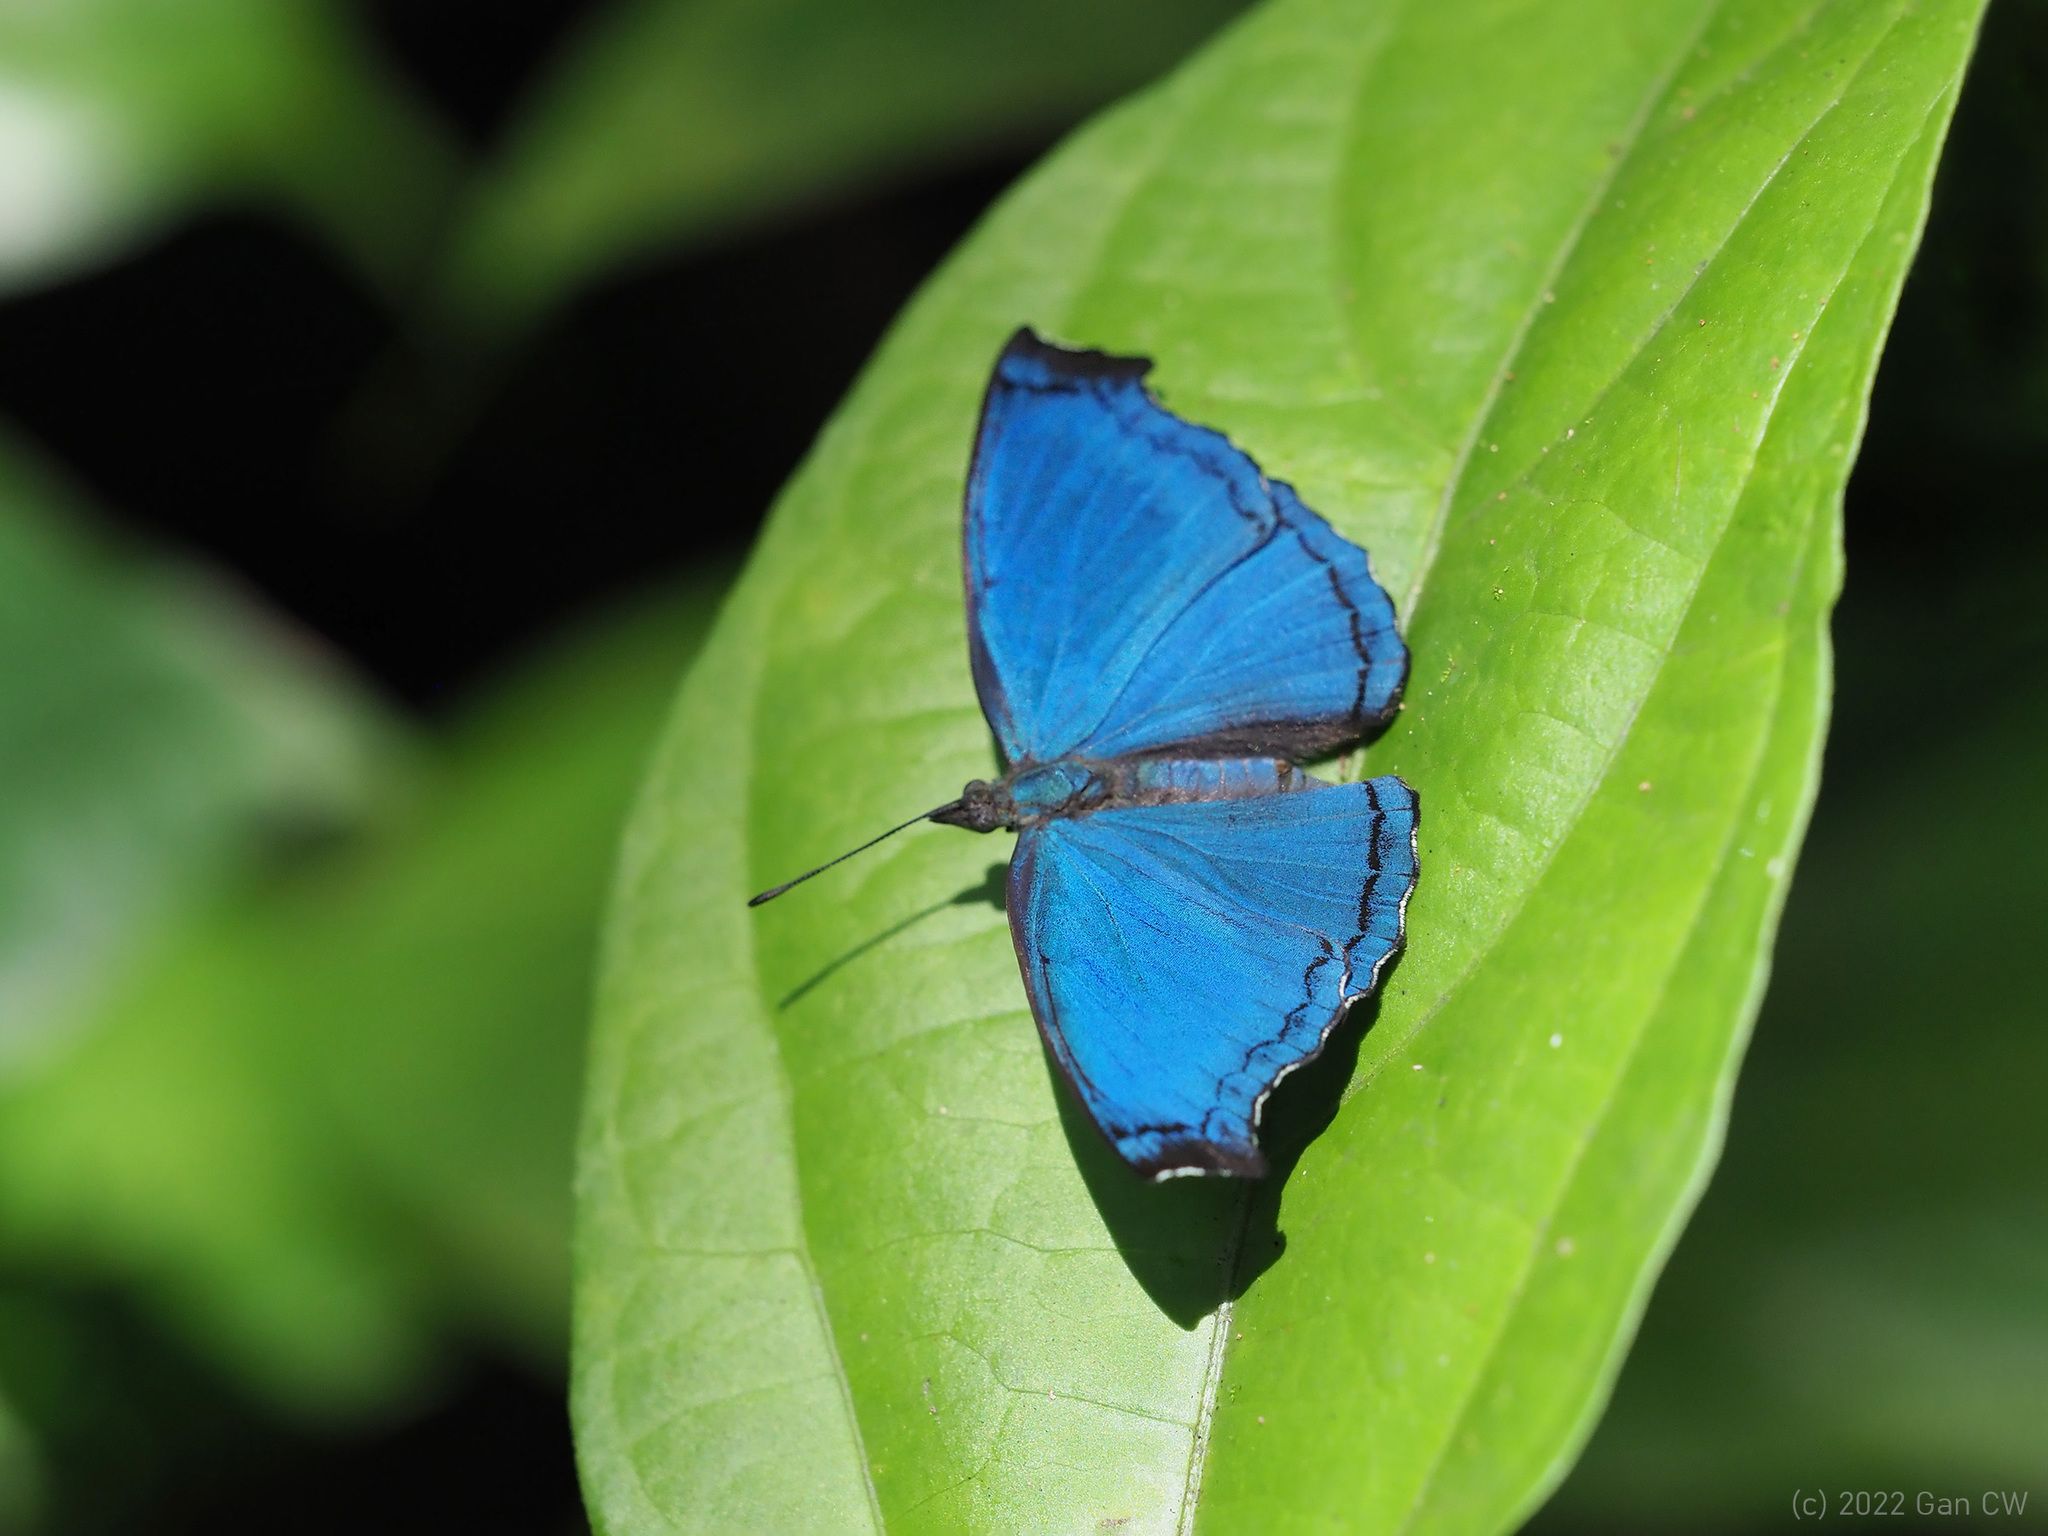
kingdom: Animalia
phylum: Arthropoda
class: Insecta
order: Lepidoptera
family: Nymphalidae
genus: Laringa
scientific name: Laringa castelnaui
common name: Blue dandy
